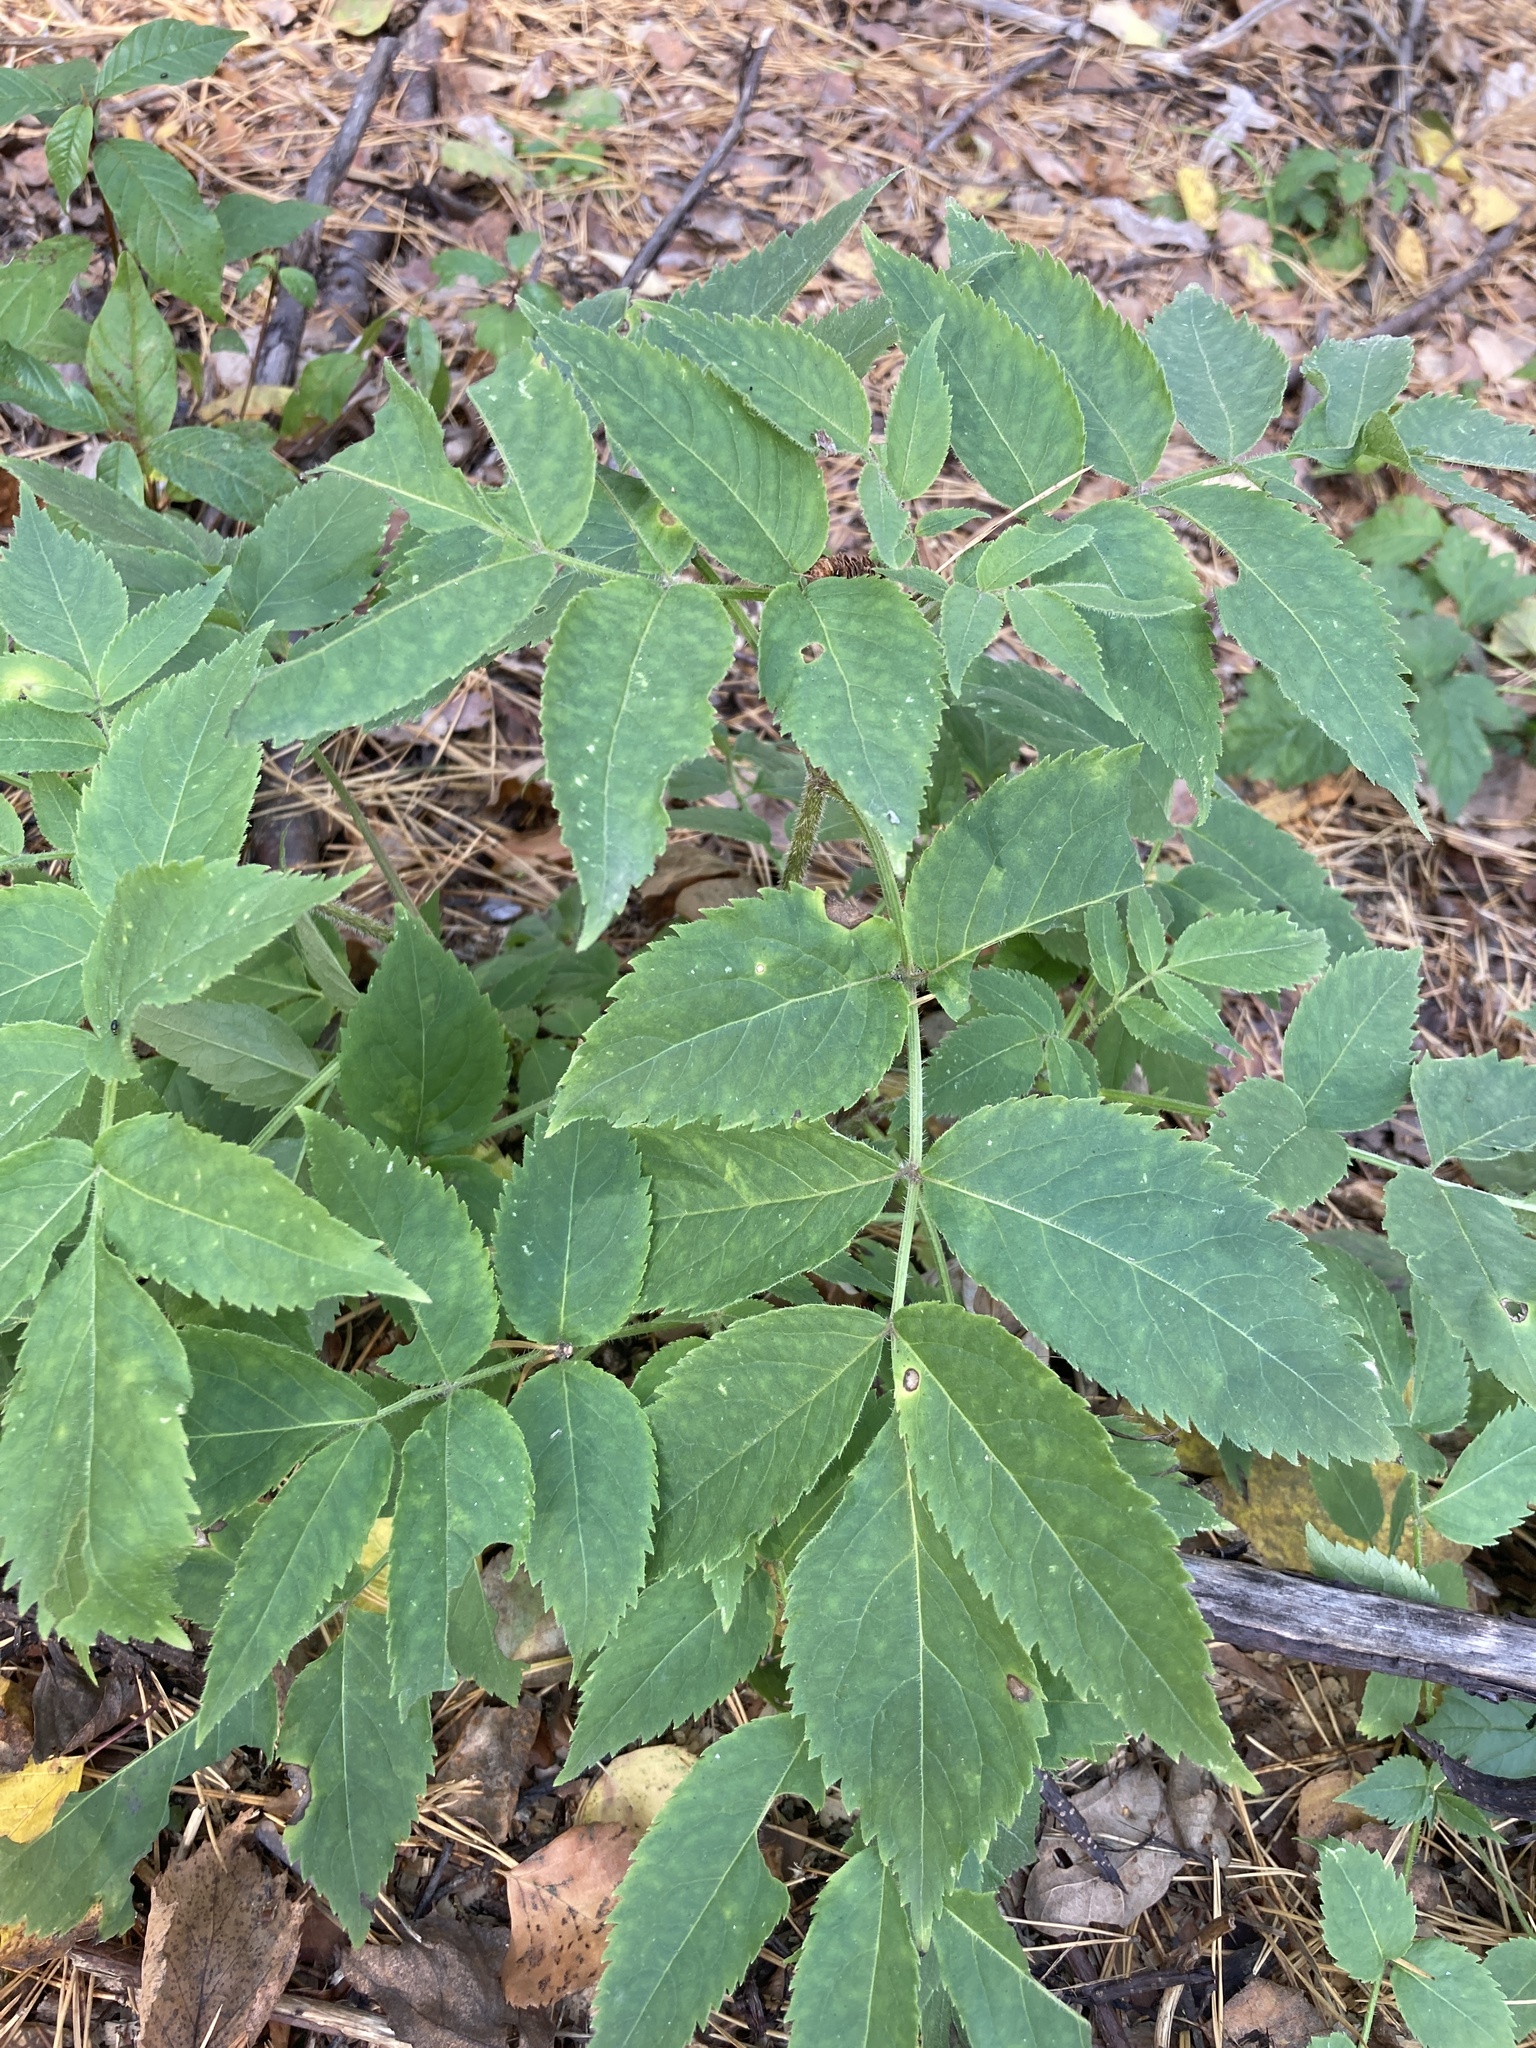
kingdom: Plantae
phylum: Tracheophyta
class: Magnoliopsida
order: Dipsacales
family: Viburnaceae
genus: Sambucus
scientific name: Sambucus racemosa
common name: Red-berried elder
